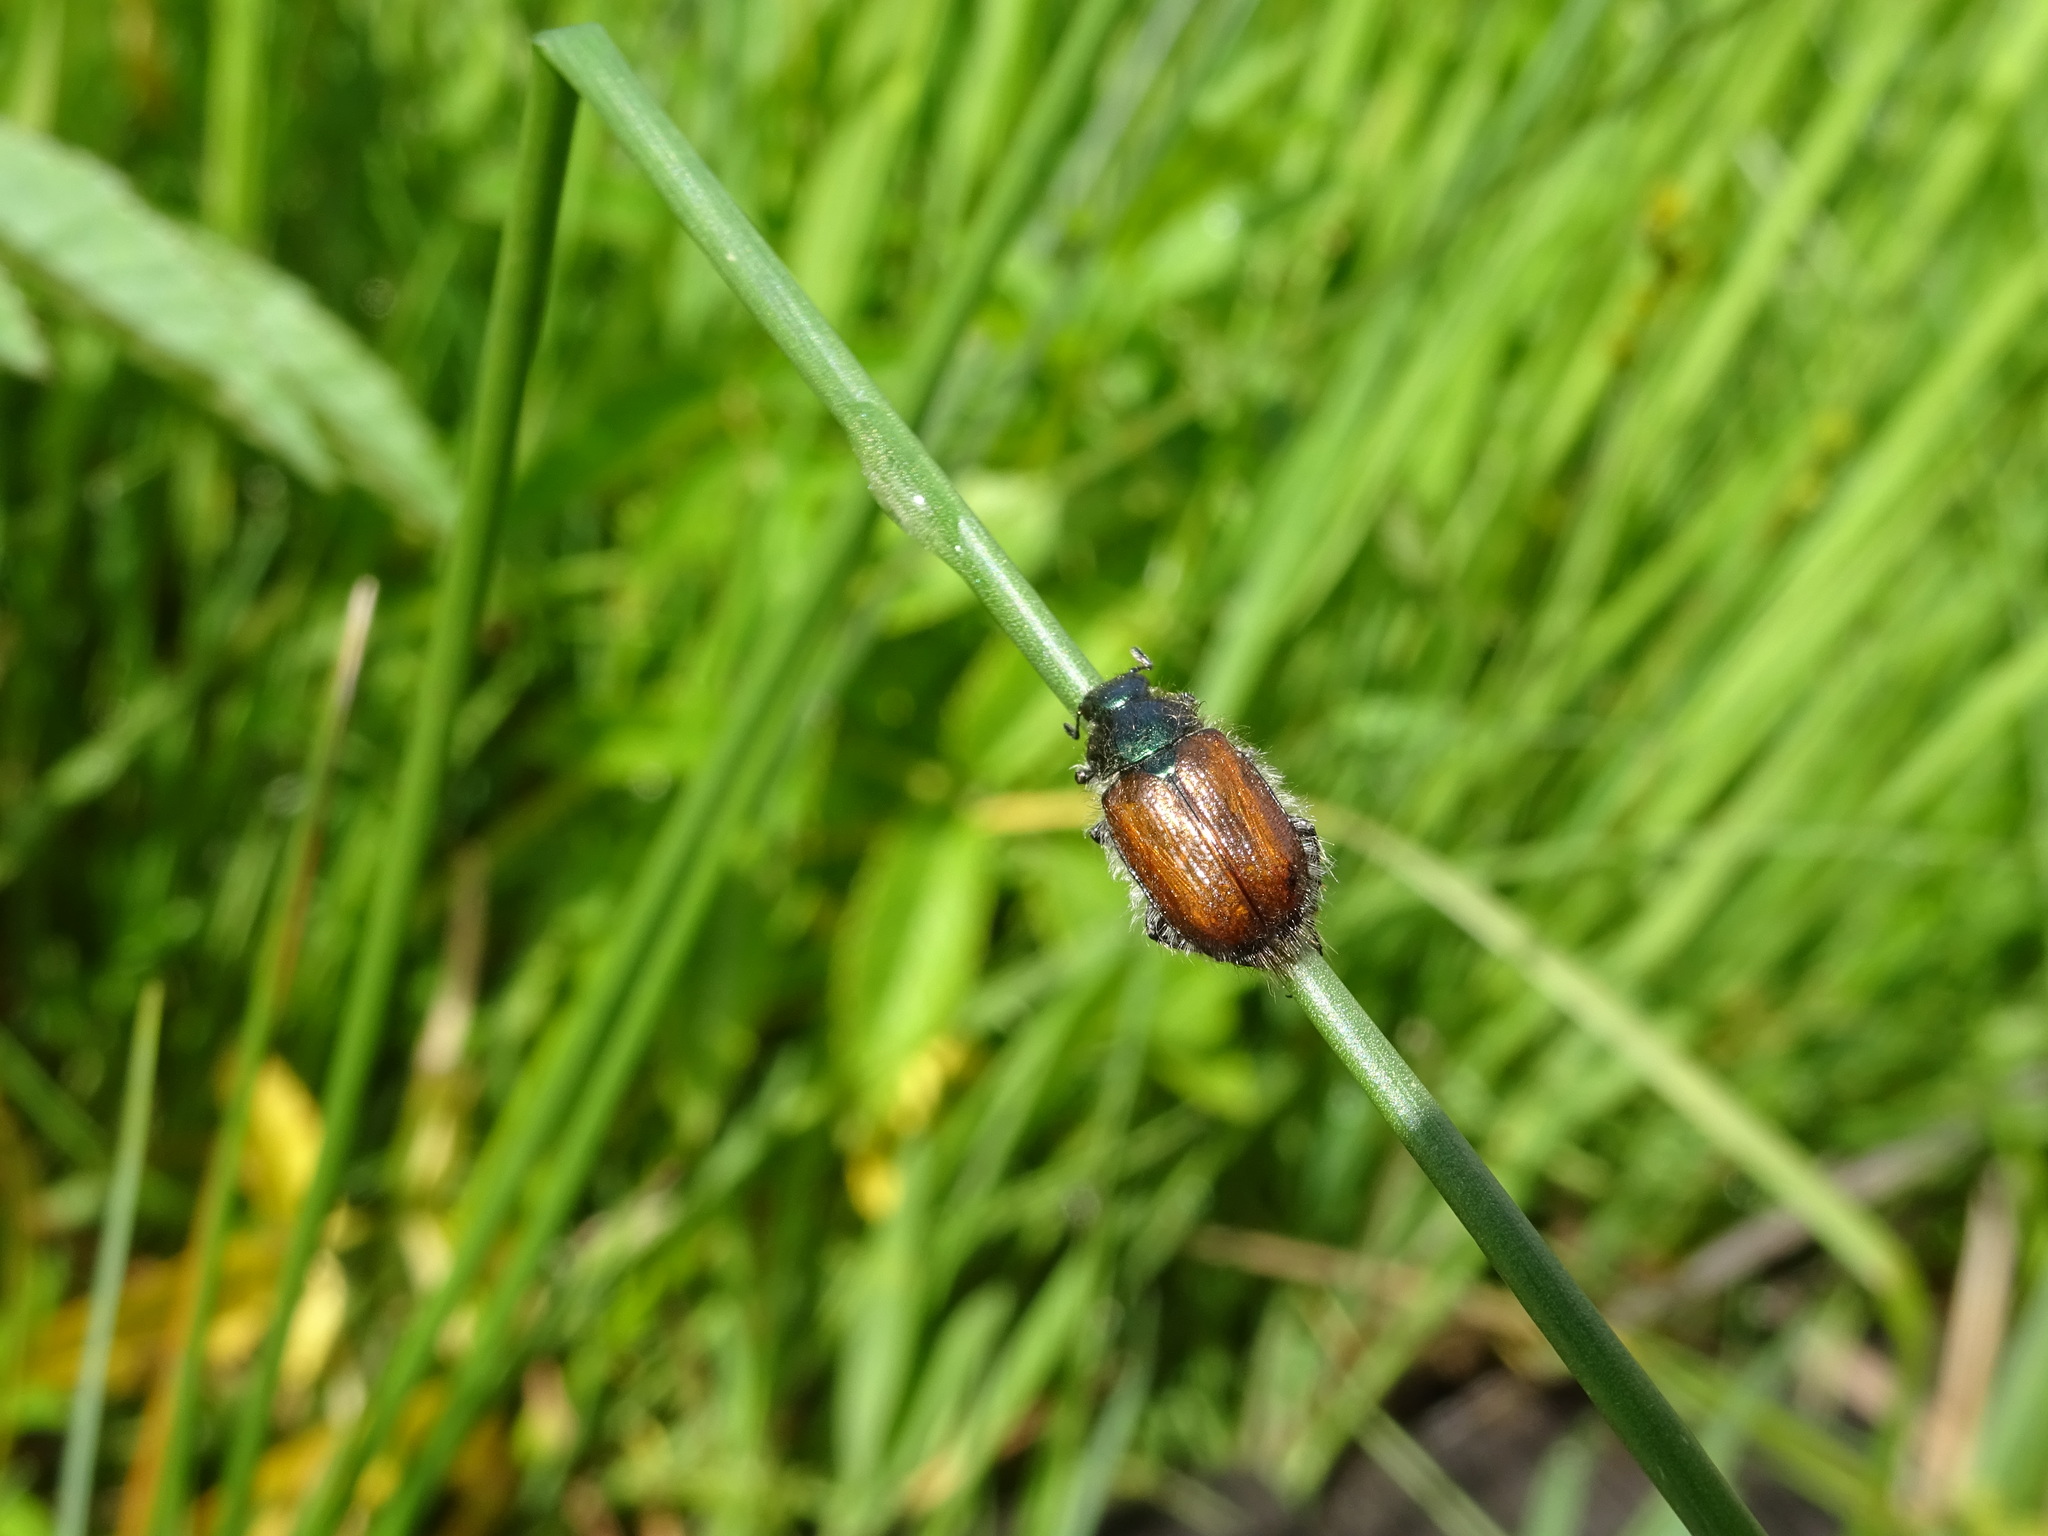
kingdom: Animalia
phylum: Arthropoda
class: Insecta
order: Coleoptera
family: Scarabaeidae
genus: Phyllopertha
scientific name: Phyllopertha horticola
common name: Garden chafer
